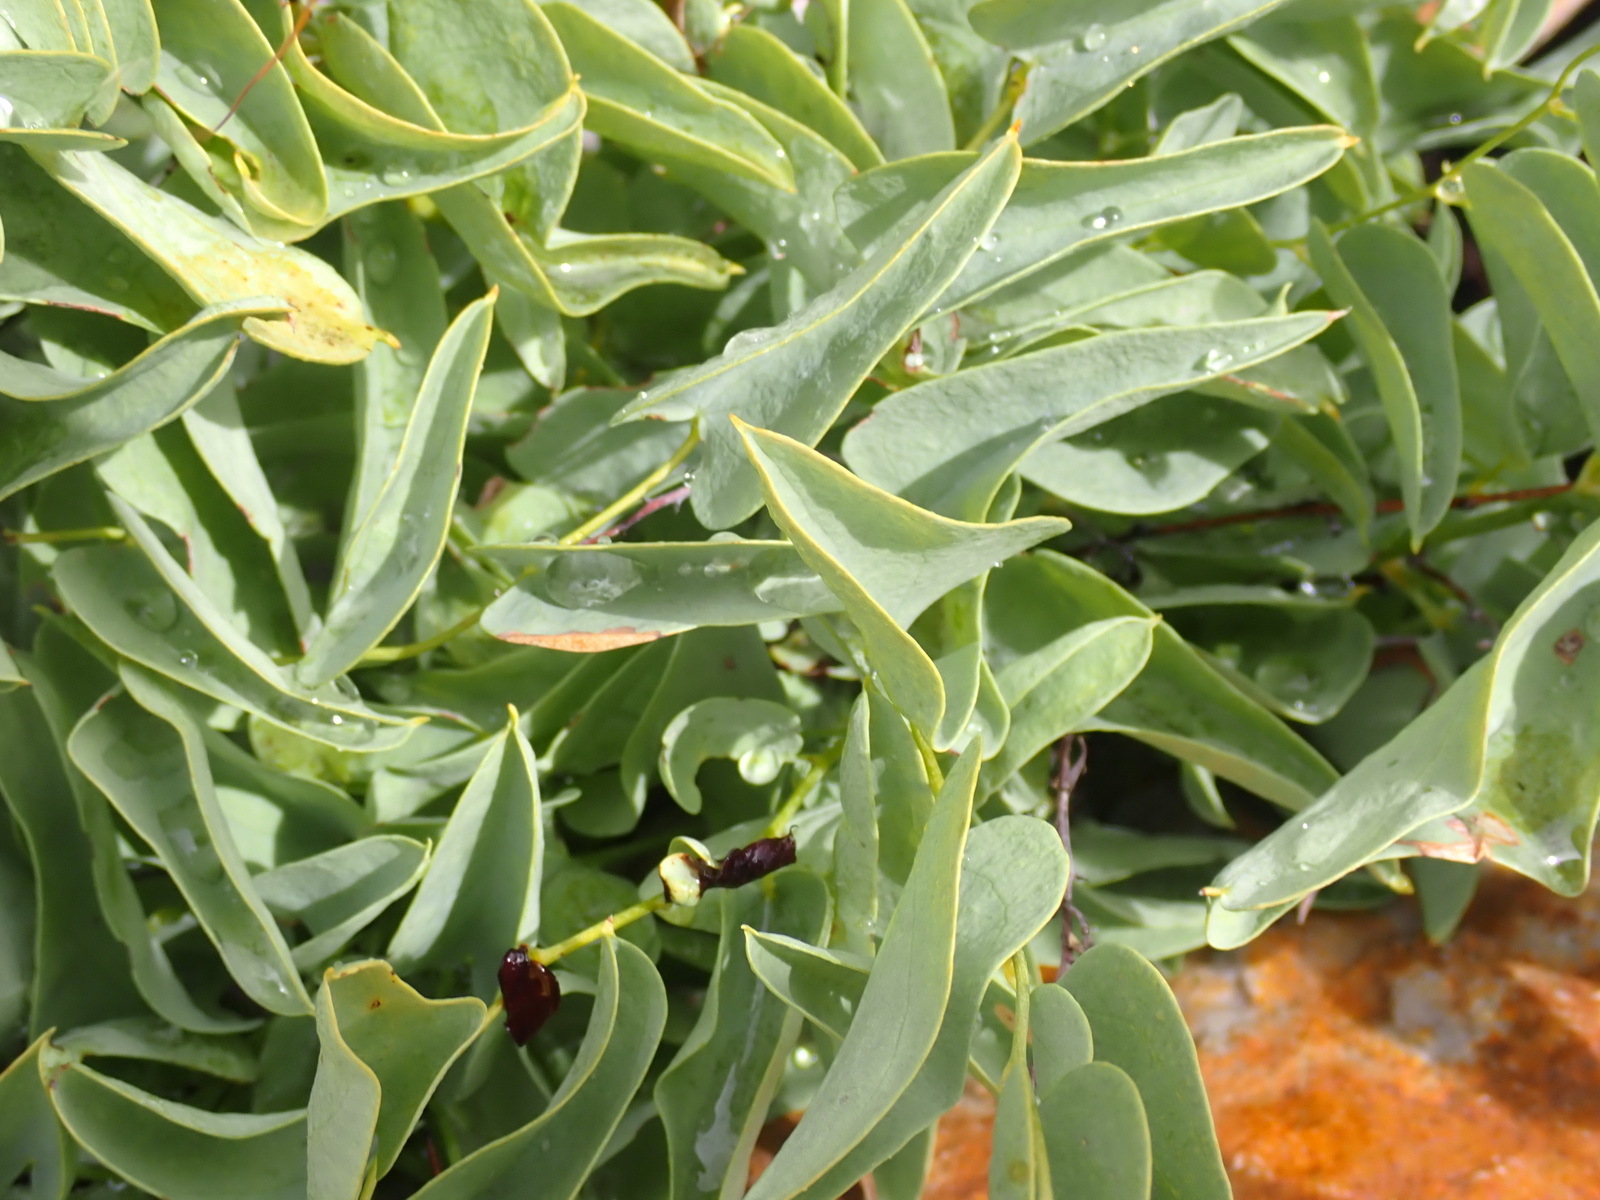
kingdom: Plantae
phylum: Tracheophyta
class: Liliopsida
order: Dioscoreales
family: Dioscoreaceae
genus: Dioscorea
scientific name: Dioscorea hemicrypta
